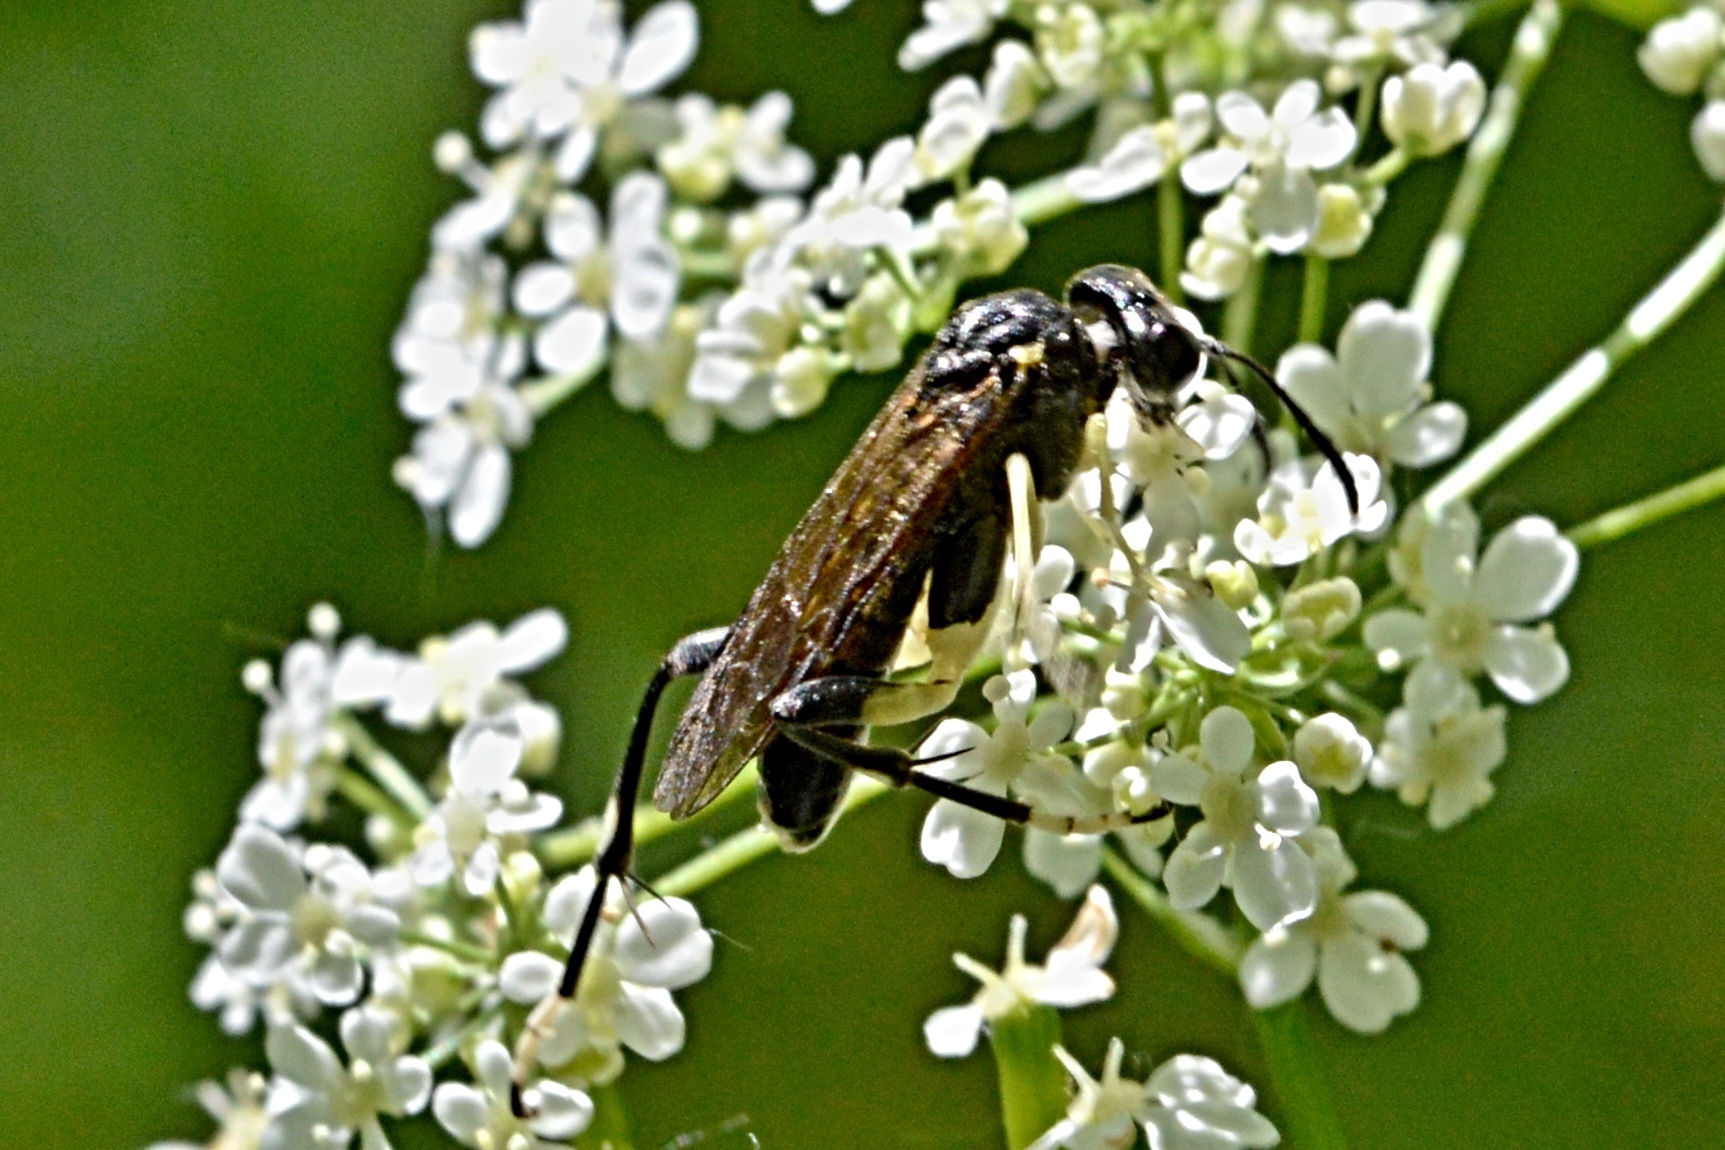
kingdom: Animalia
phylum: Arthropoda
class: Insecta
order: Hymenoptera
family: Tenthredinidae
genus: Macrophya
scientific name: Macrophya montana
